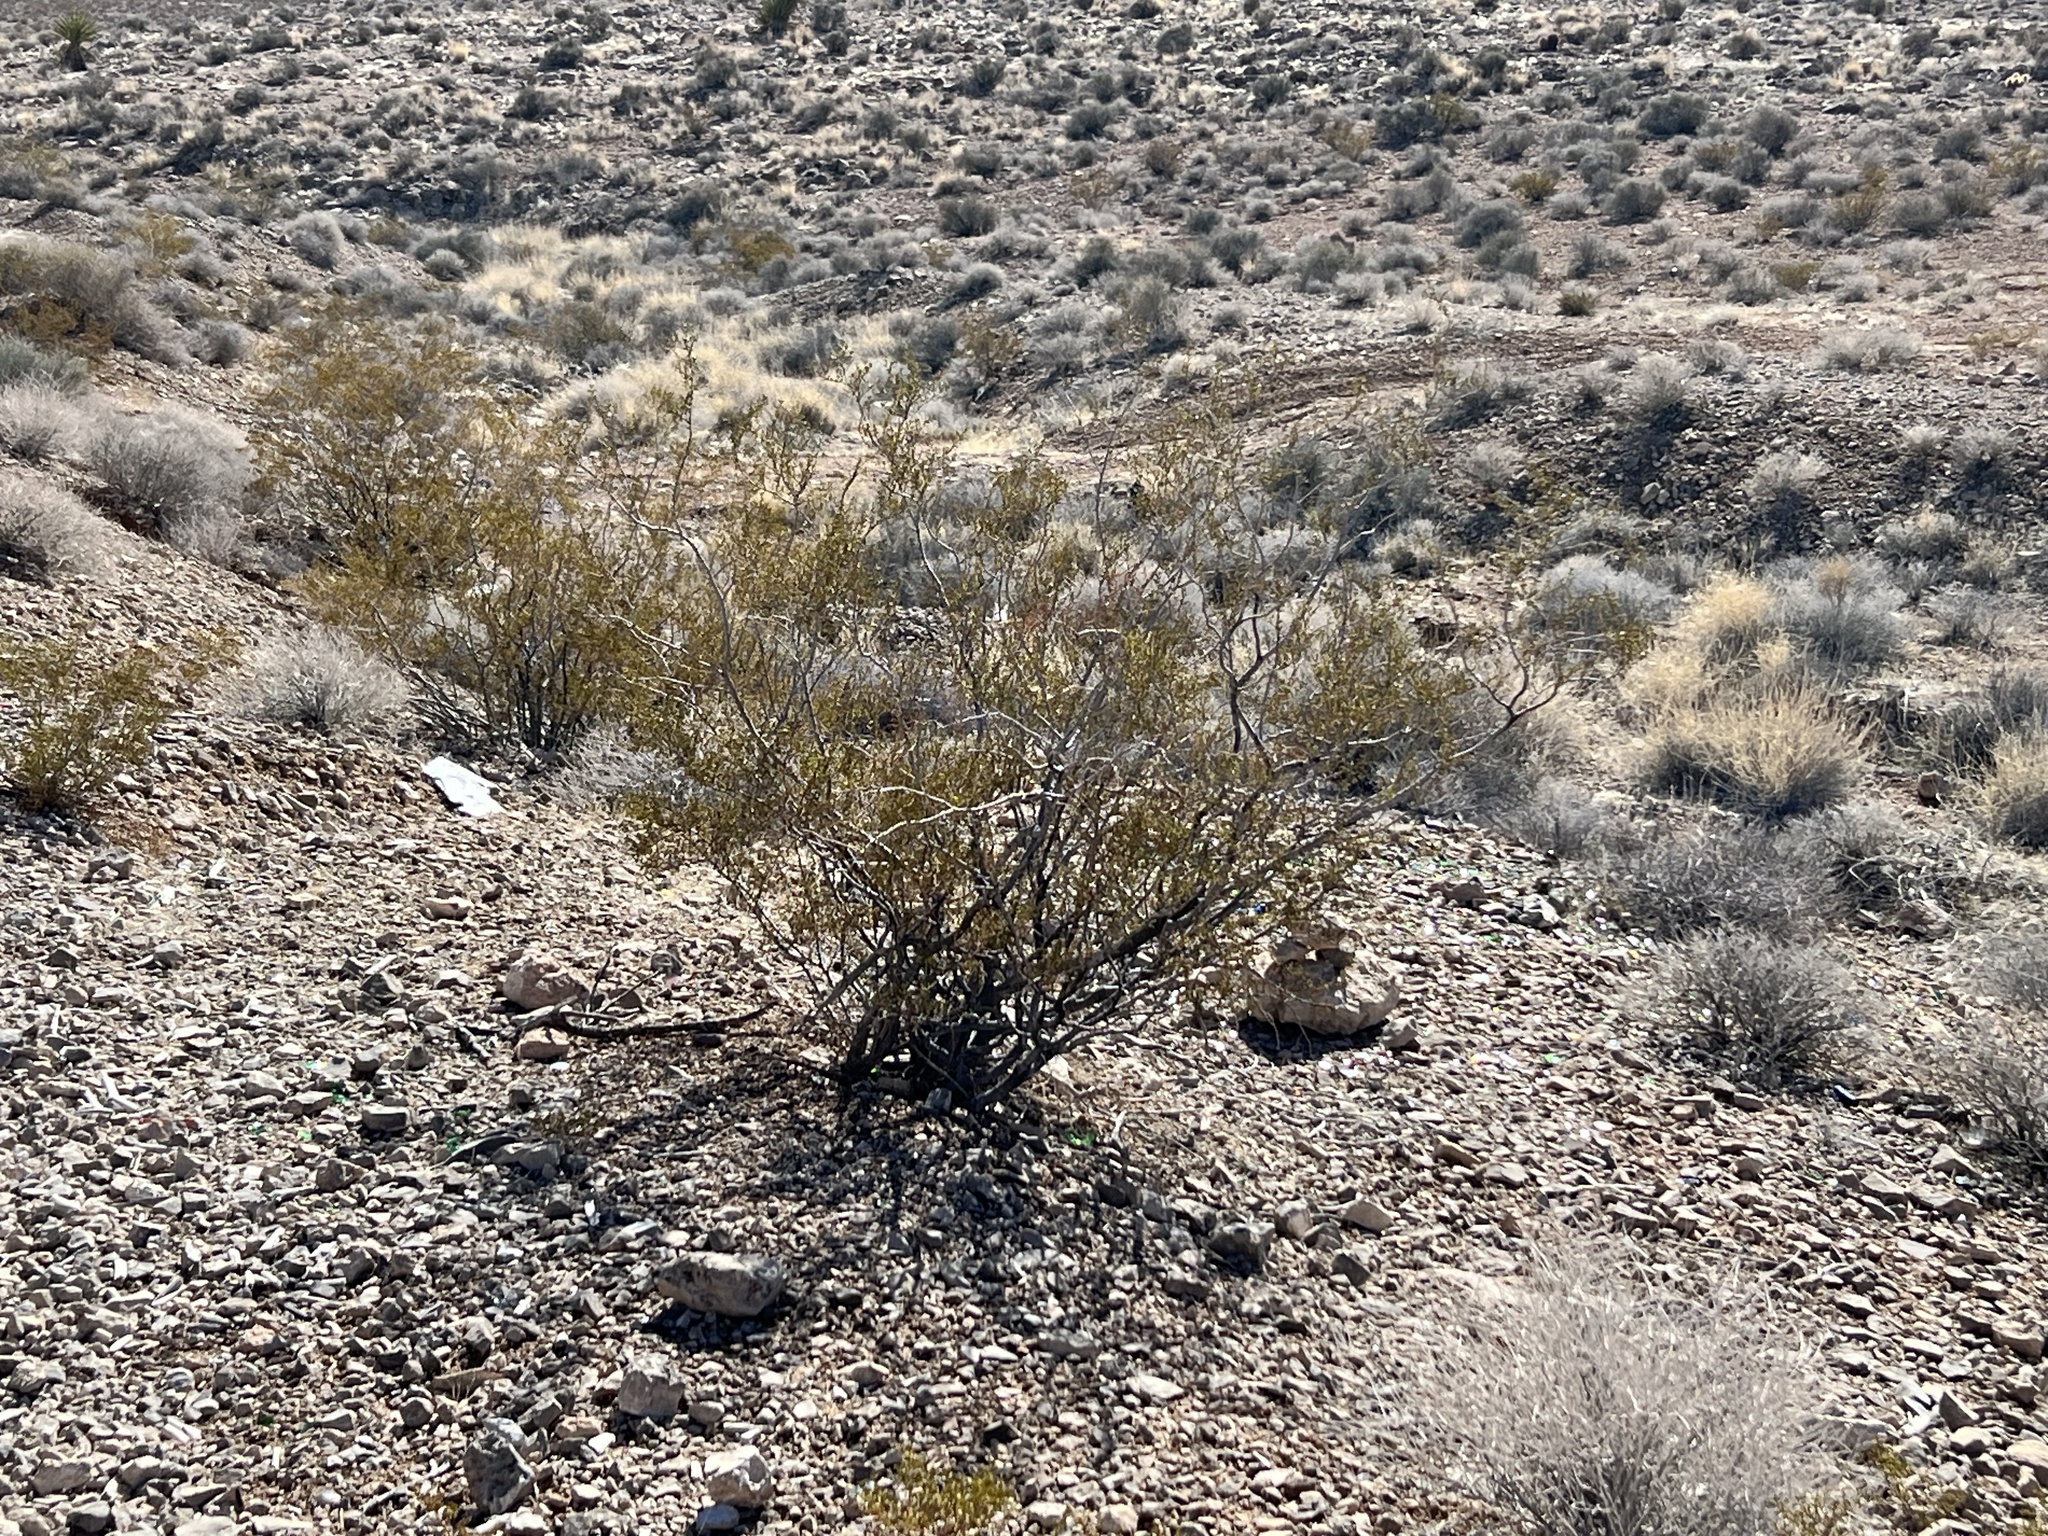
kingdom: Plantae
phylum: Tracheophyta
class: Magnoliopsida
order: Zygophyllales
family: Zygophyllaceae
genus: Larrea
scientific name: Larrea tridentata
